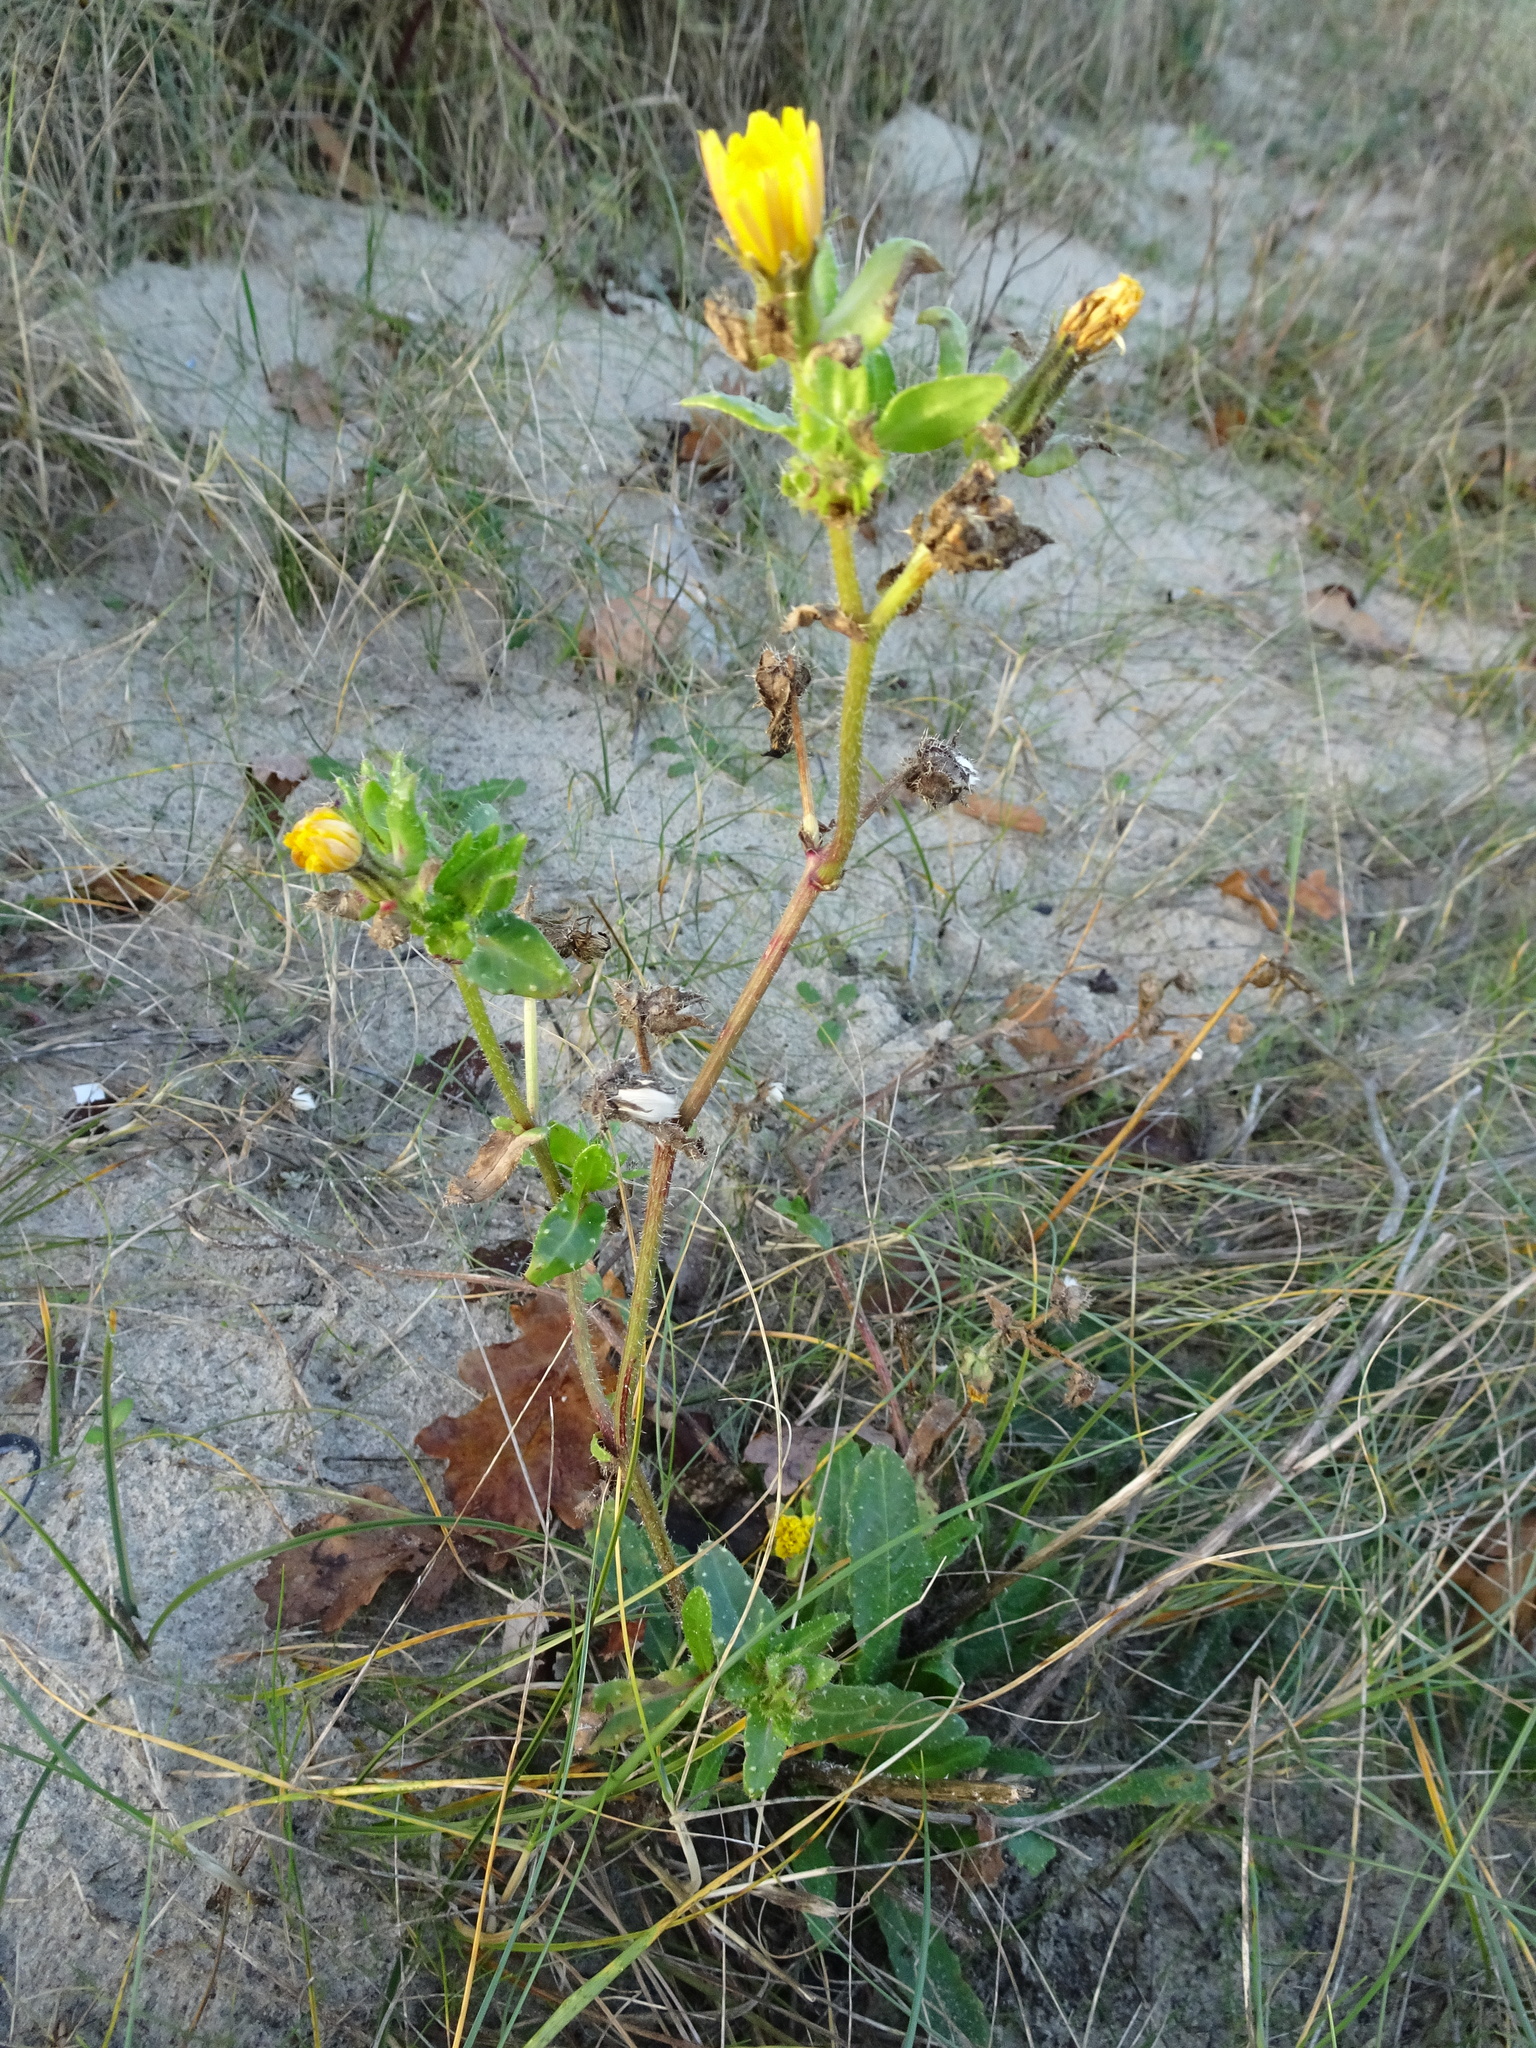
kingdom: Plantae
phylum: Tracheophyta
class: Magnoliopsida
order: Asterales
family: Asteraceae
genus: Helminthotheca
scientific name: Helminthotheca echioides
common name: Ox-tongue
